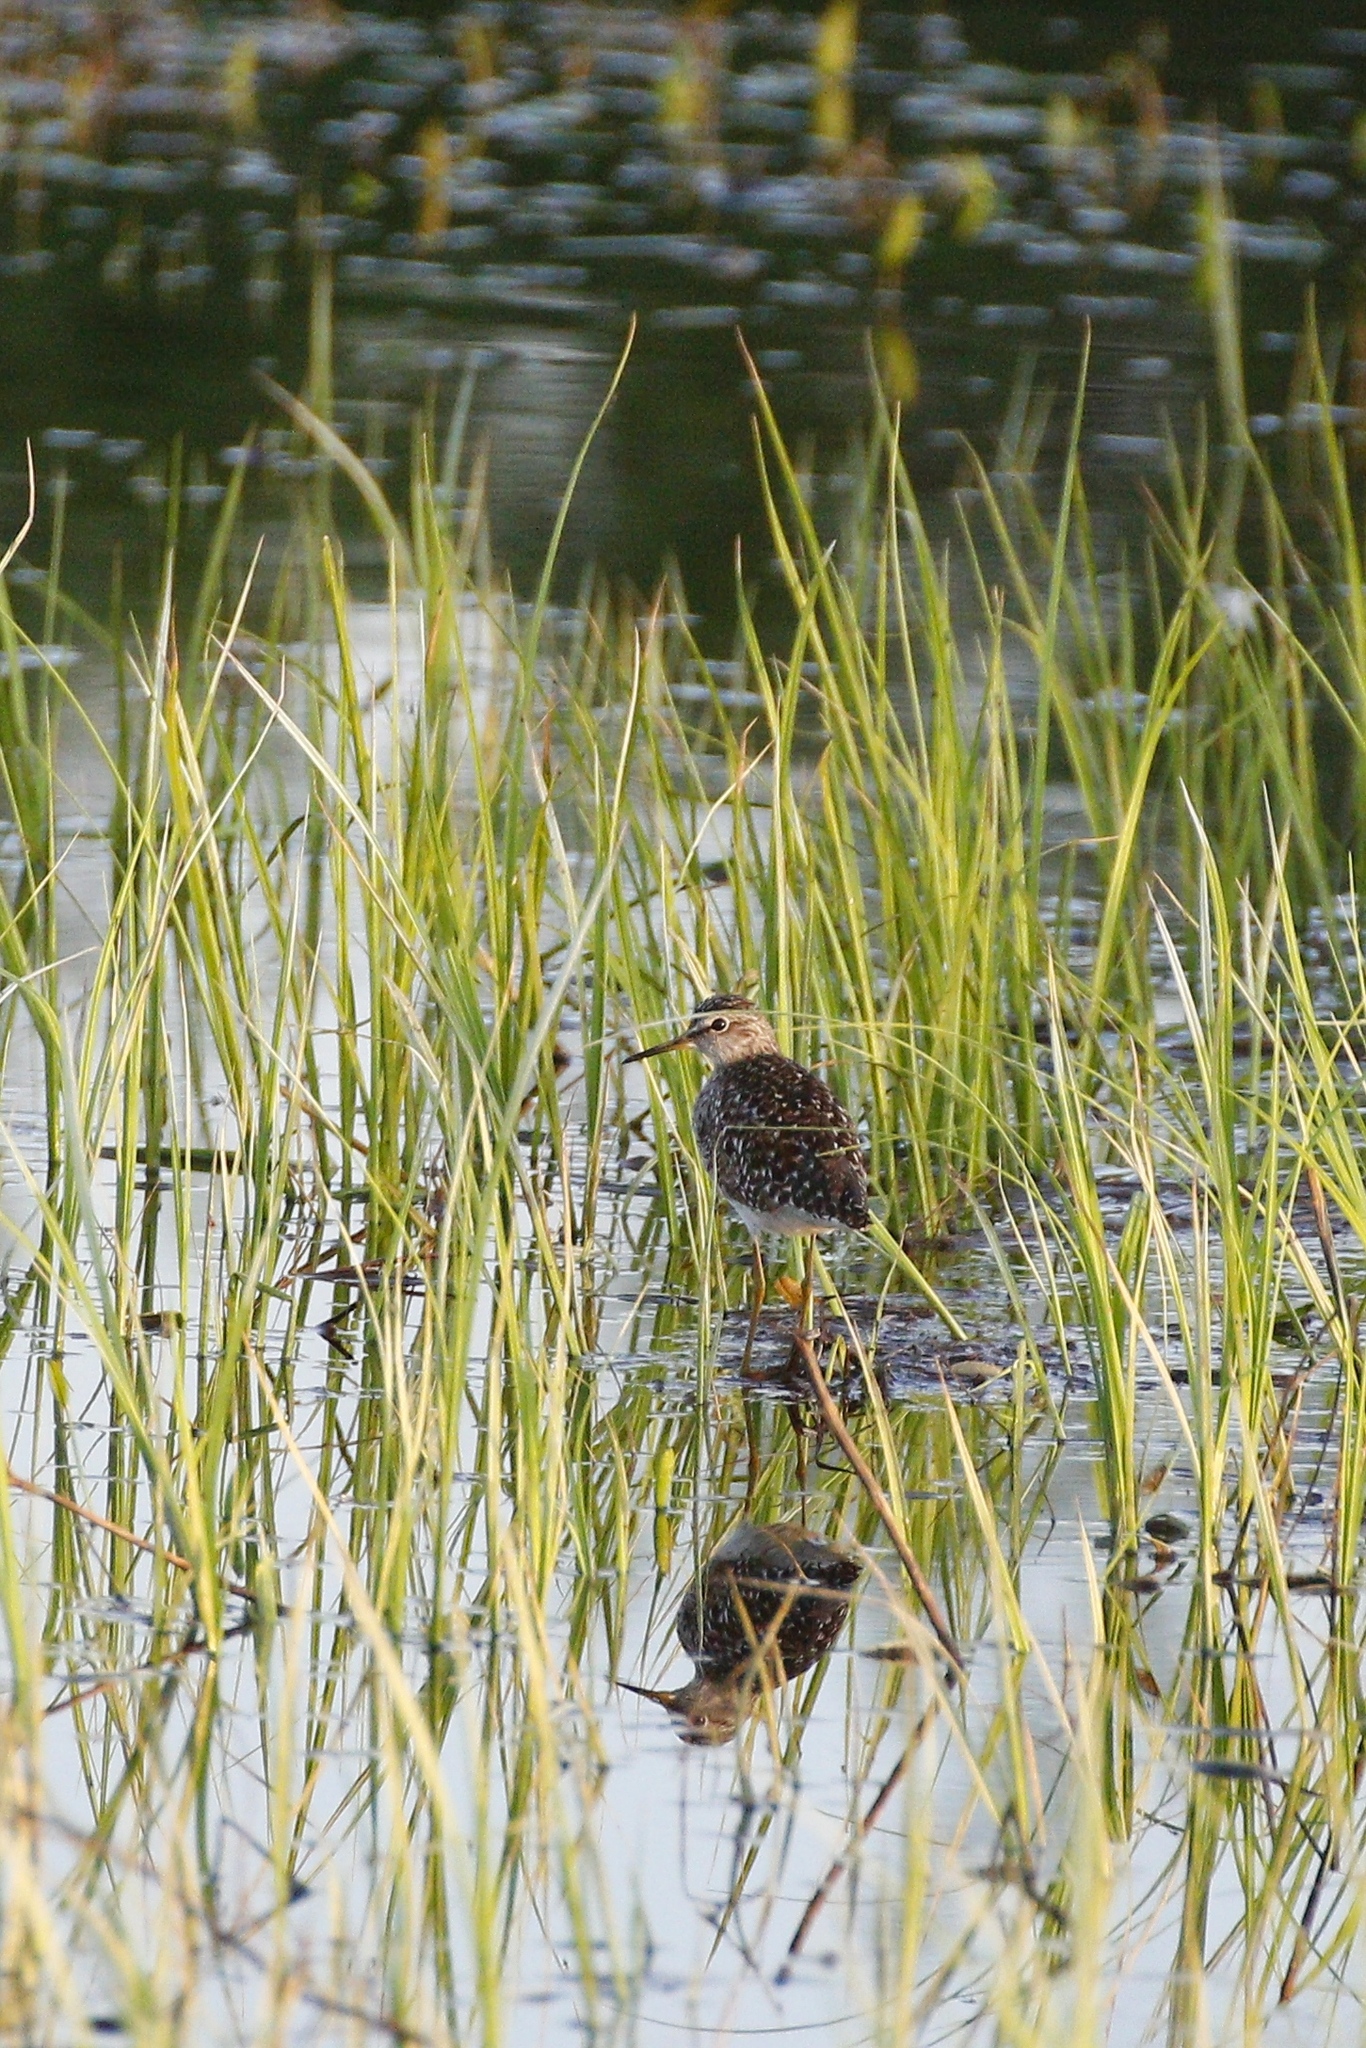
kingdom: Animalia
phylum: Chordata
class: Aves
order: Charadriiformes
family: Scolopacidae
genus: Tringa
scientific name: Tringa glareola
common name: Wood sandpiper
